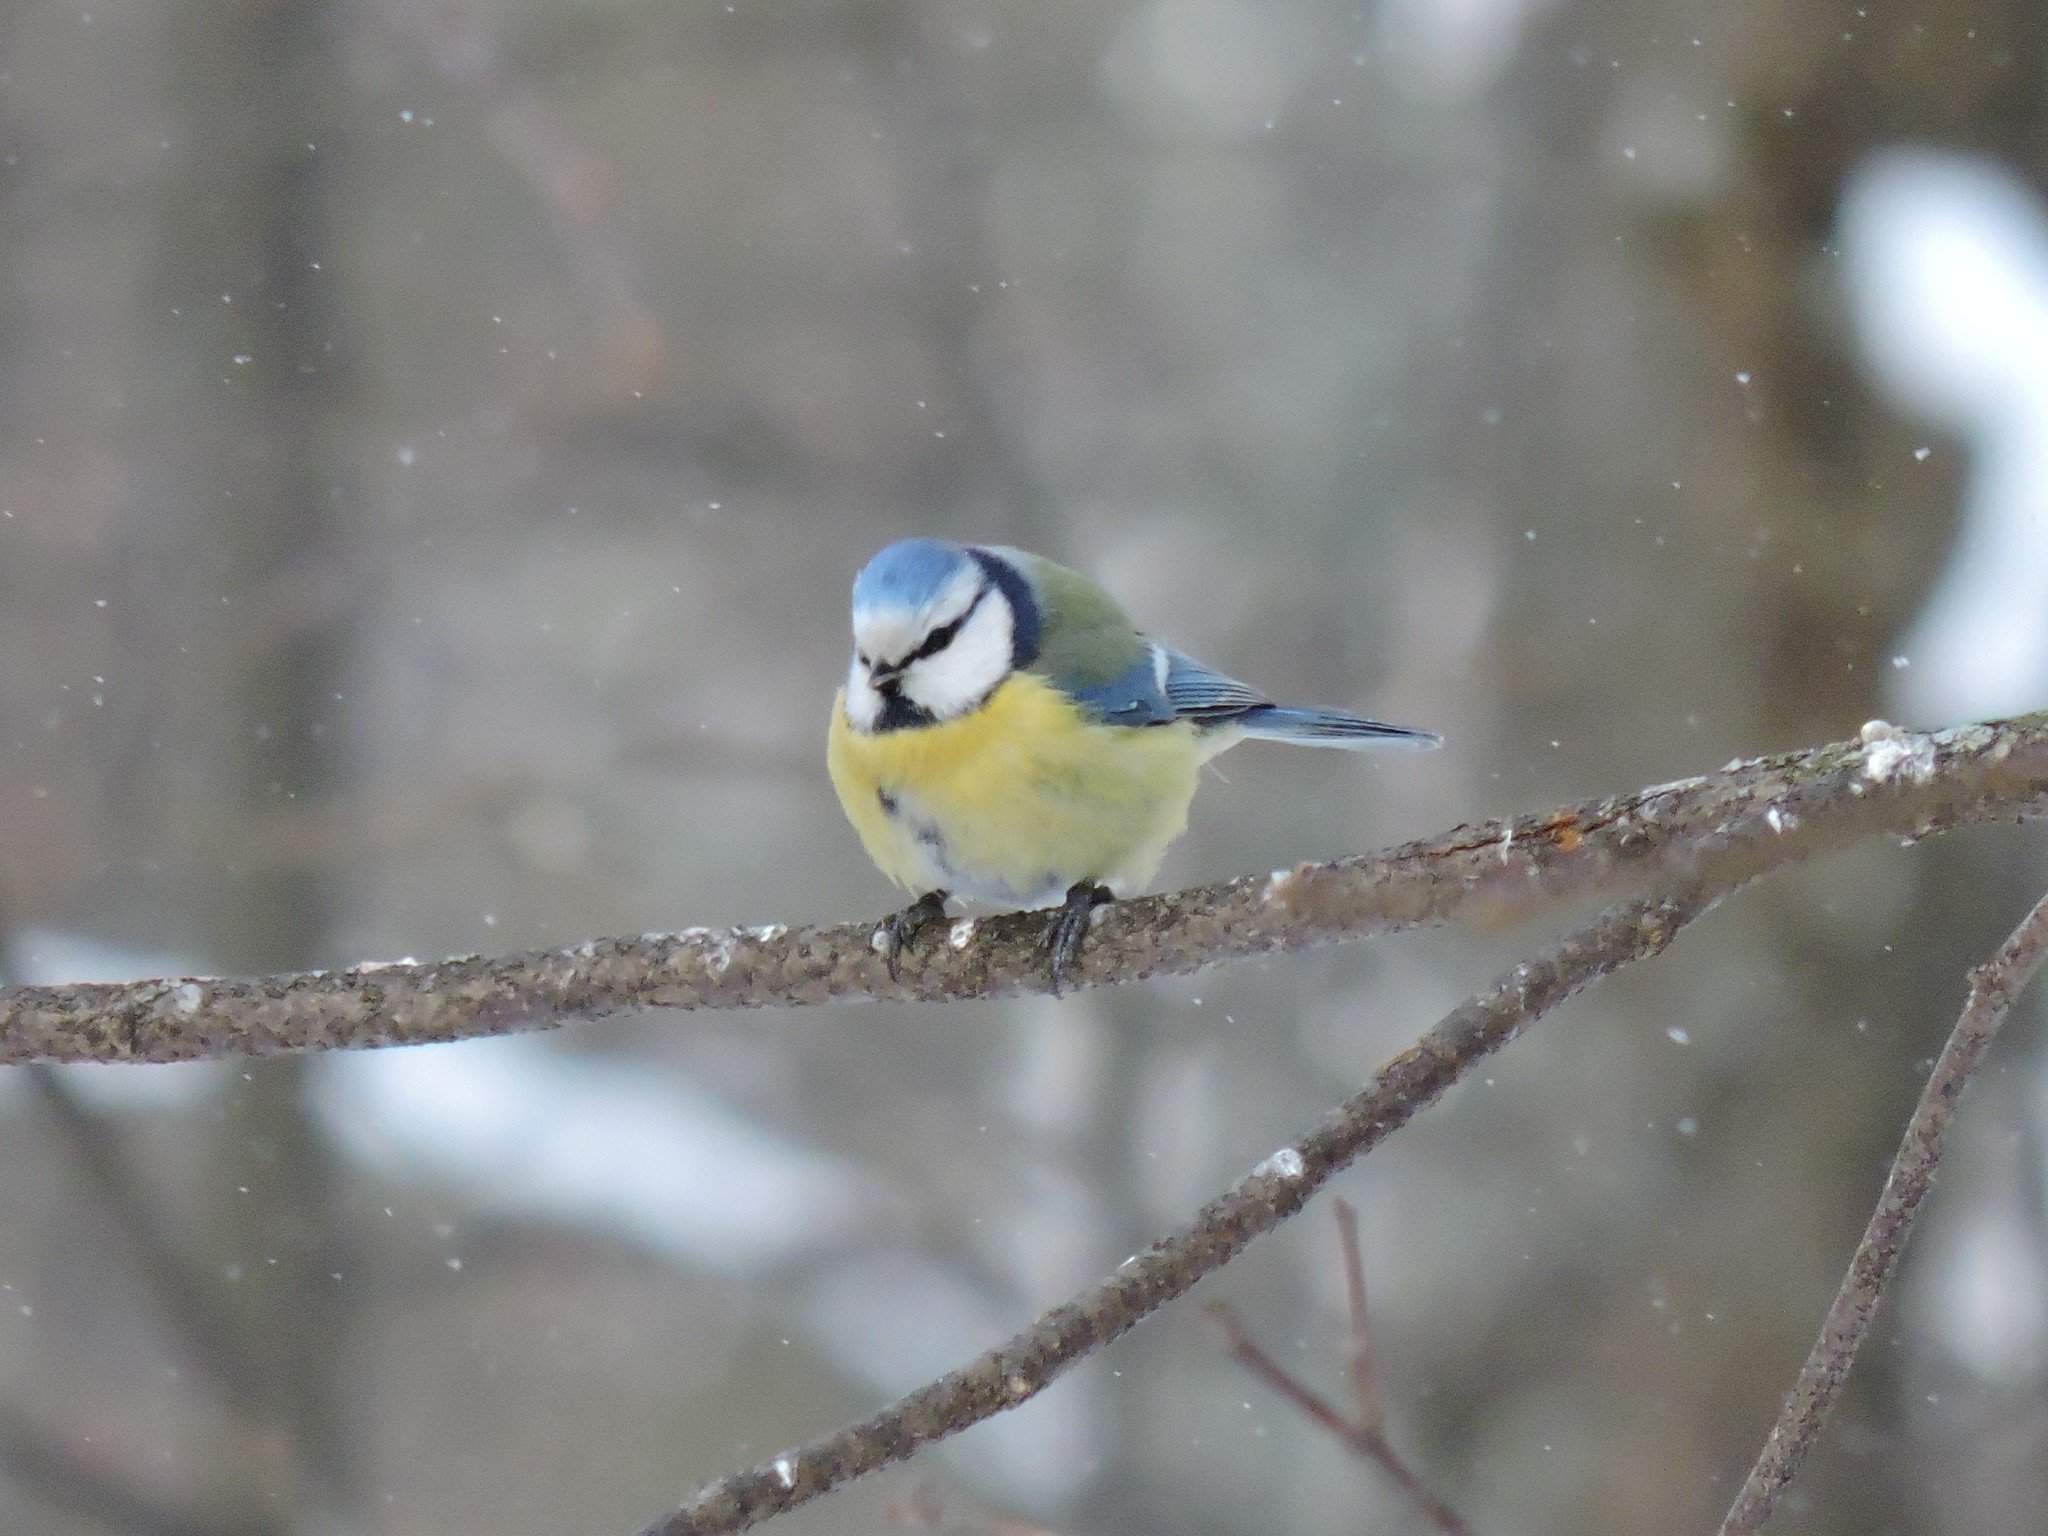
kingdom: Animalia
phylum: Chordata
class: Aves
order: Passeriformes
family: Paridae
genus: Cyanistes
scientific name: Cyanistes caeruleus
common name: Eurasian blue tit
